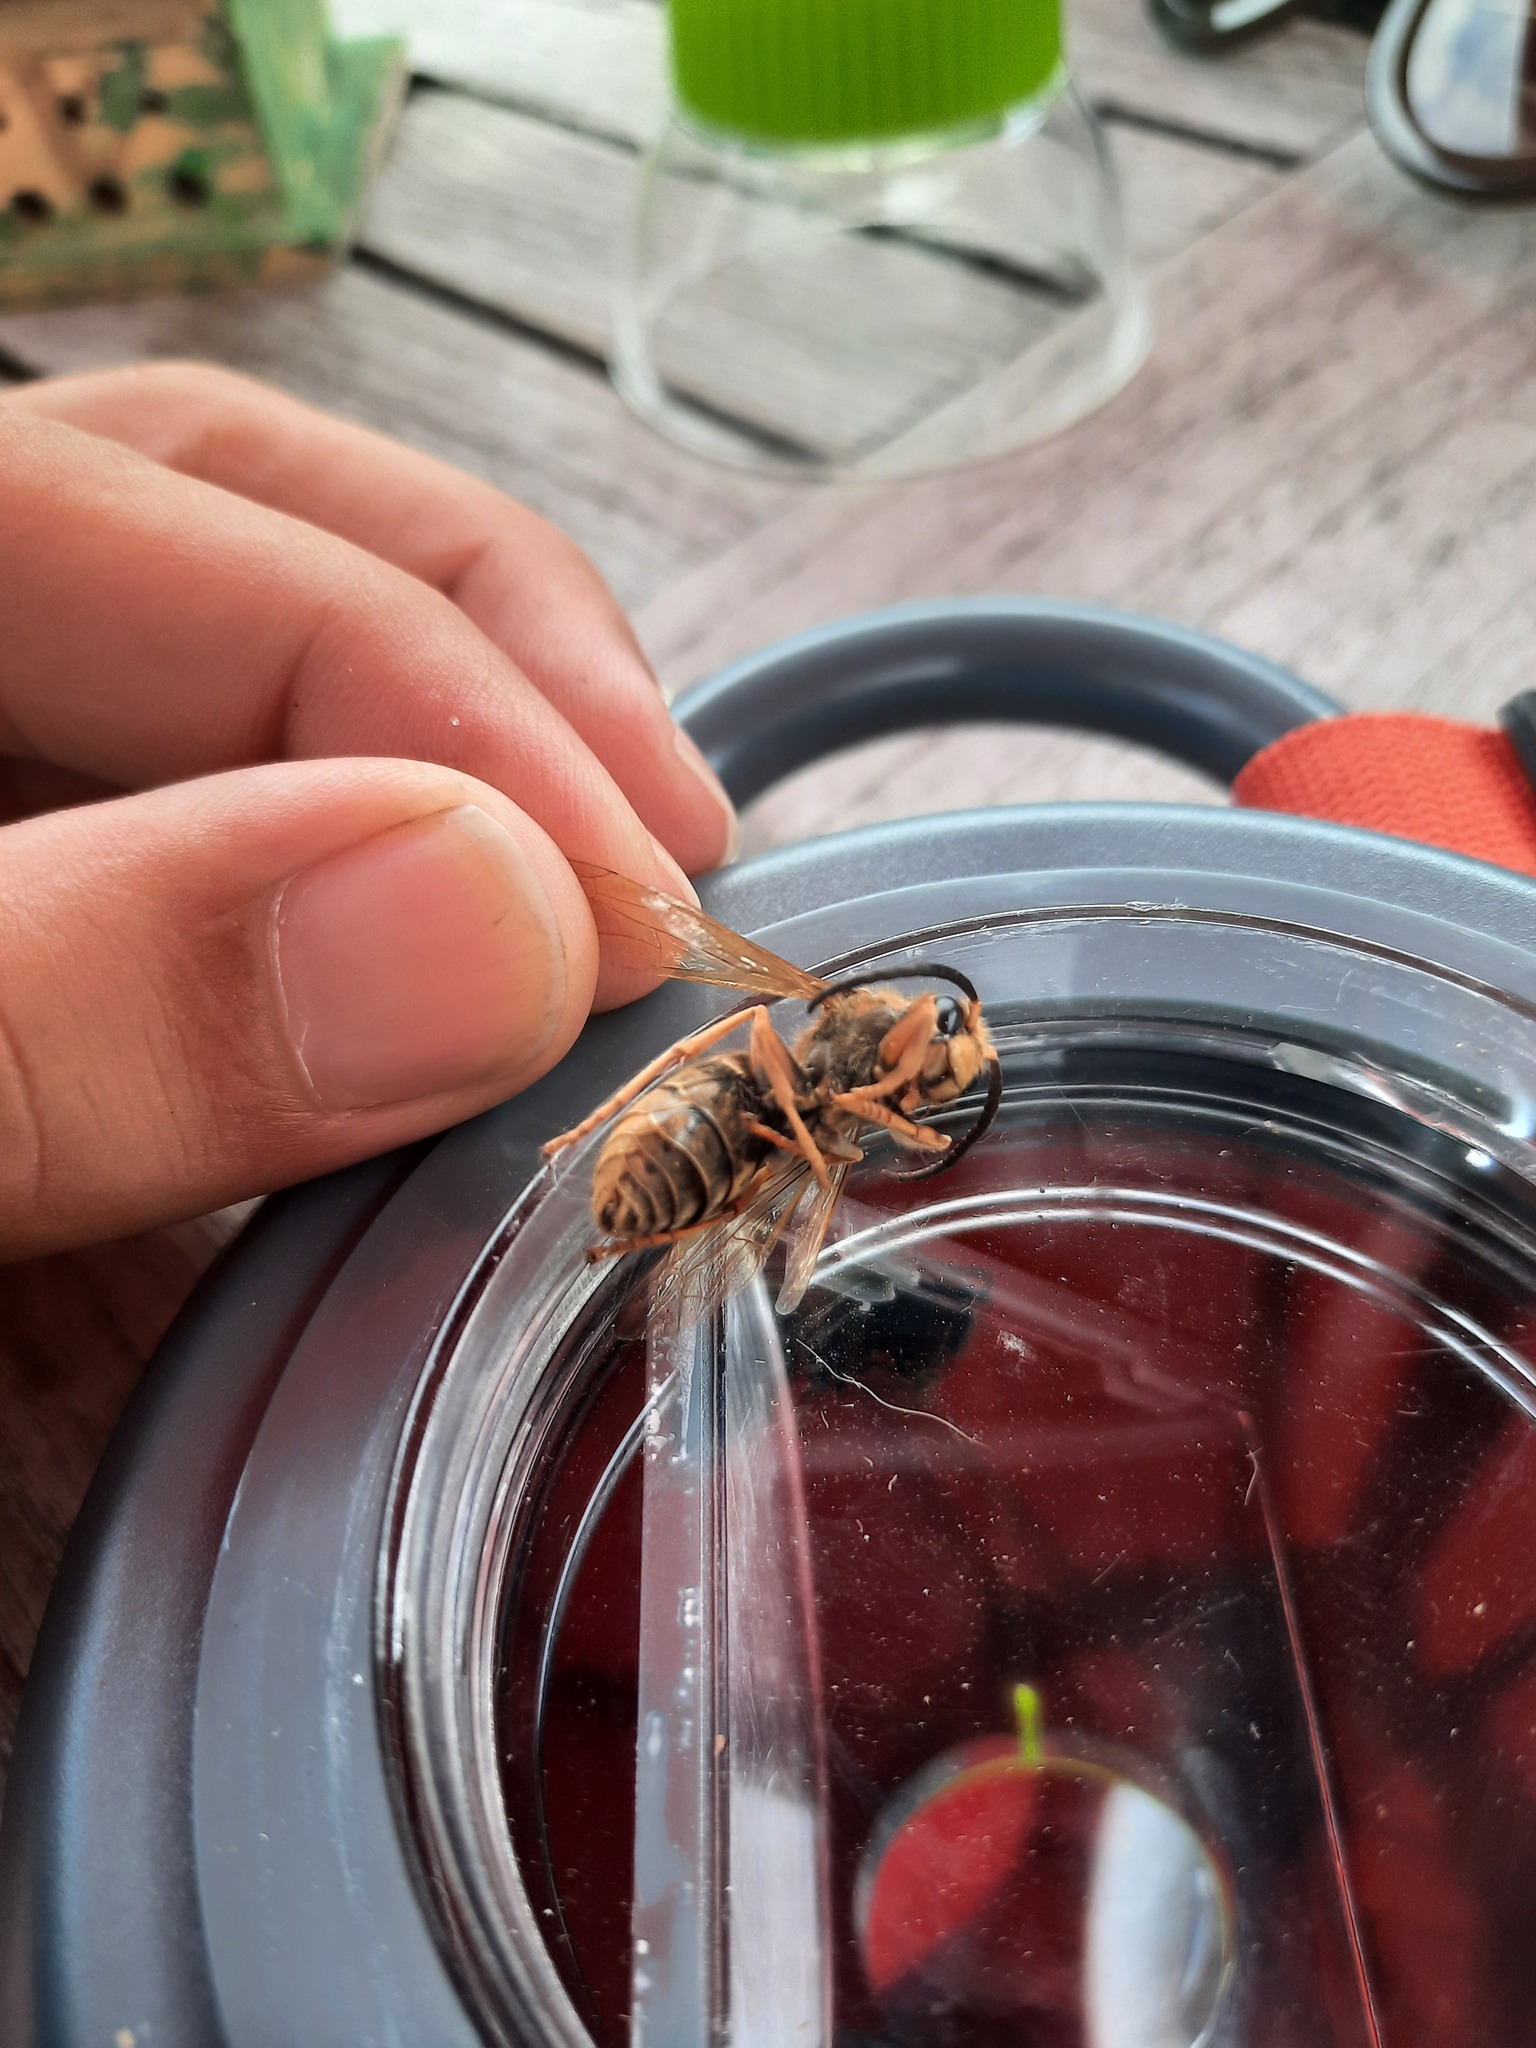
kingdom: Animalia
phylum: Arthropoda
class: Insecta
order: Hymenoptera
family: Vespidae
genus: Vespa
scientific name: Vespa crabro
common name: Hornet
